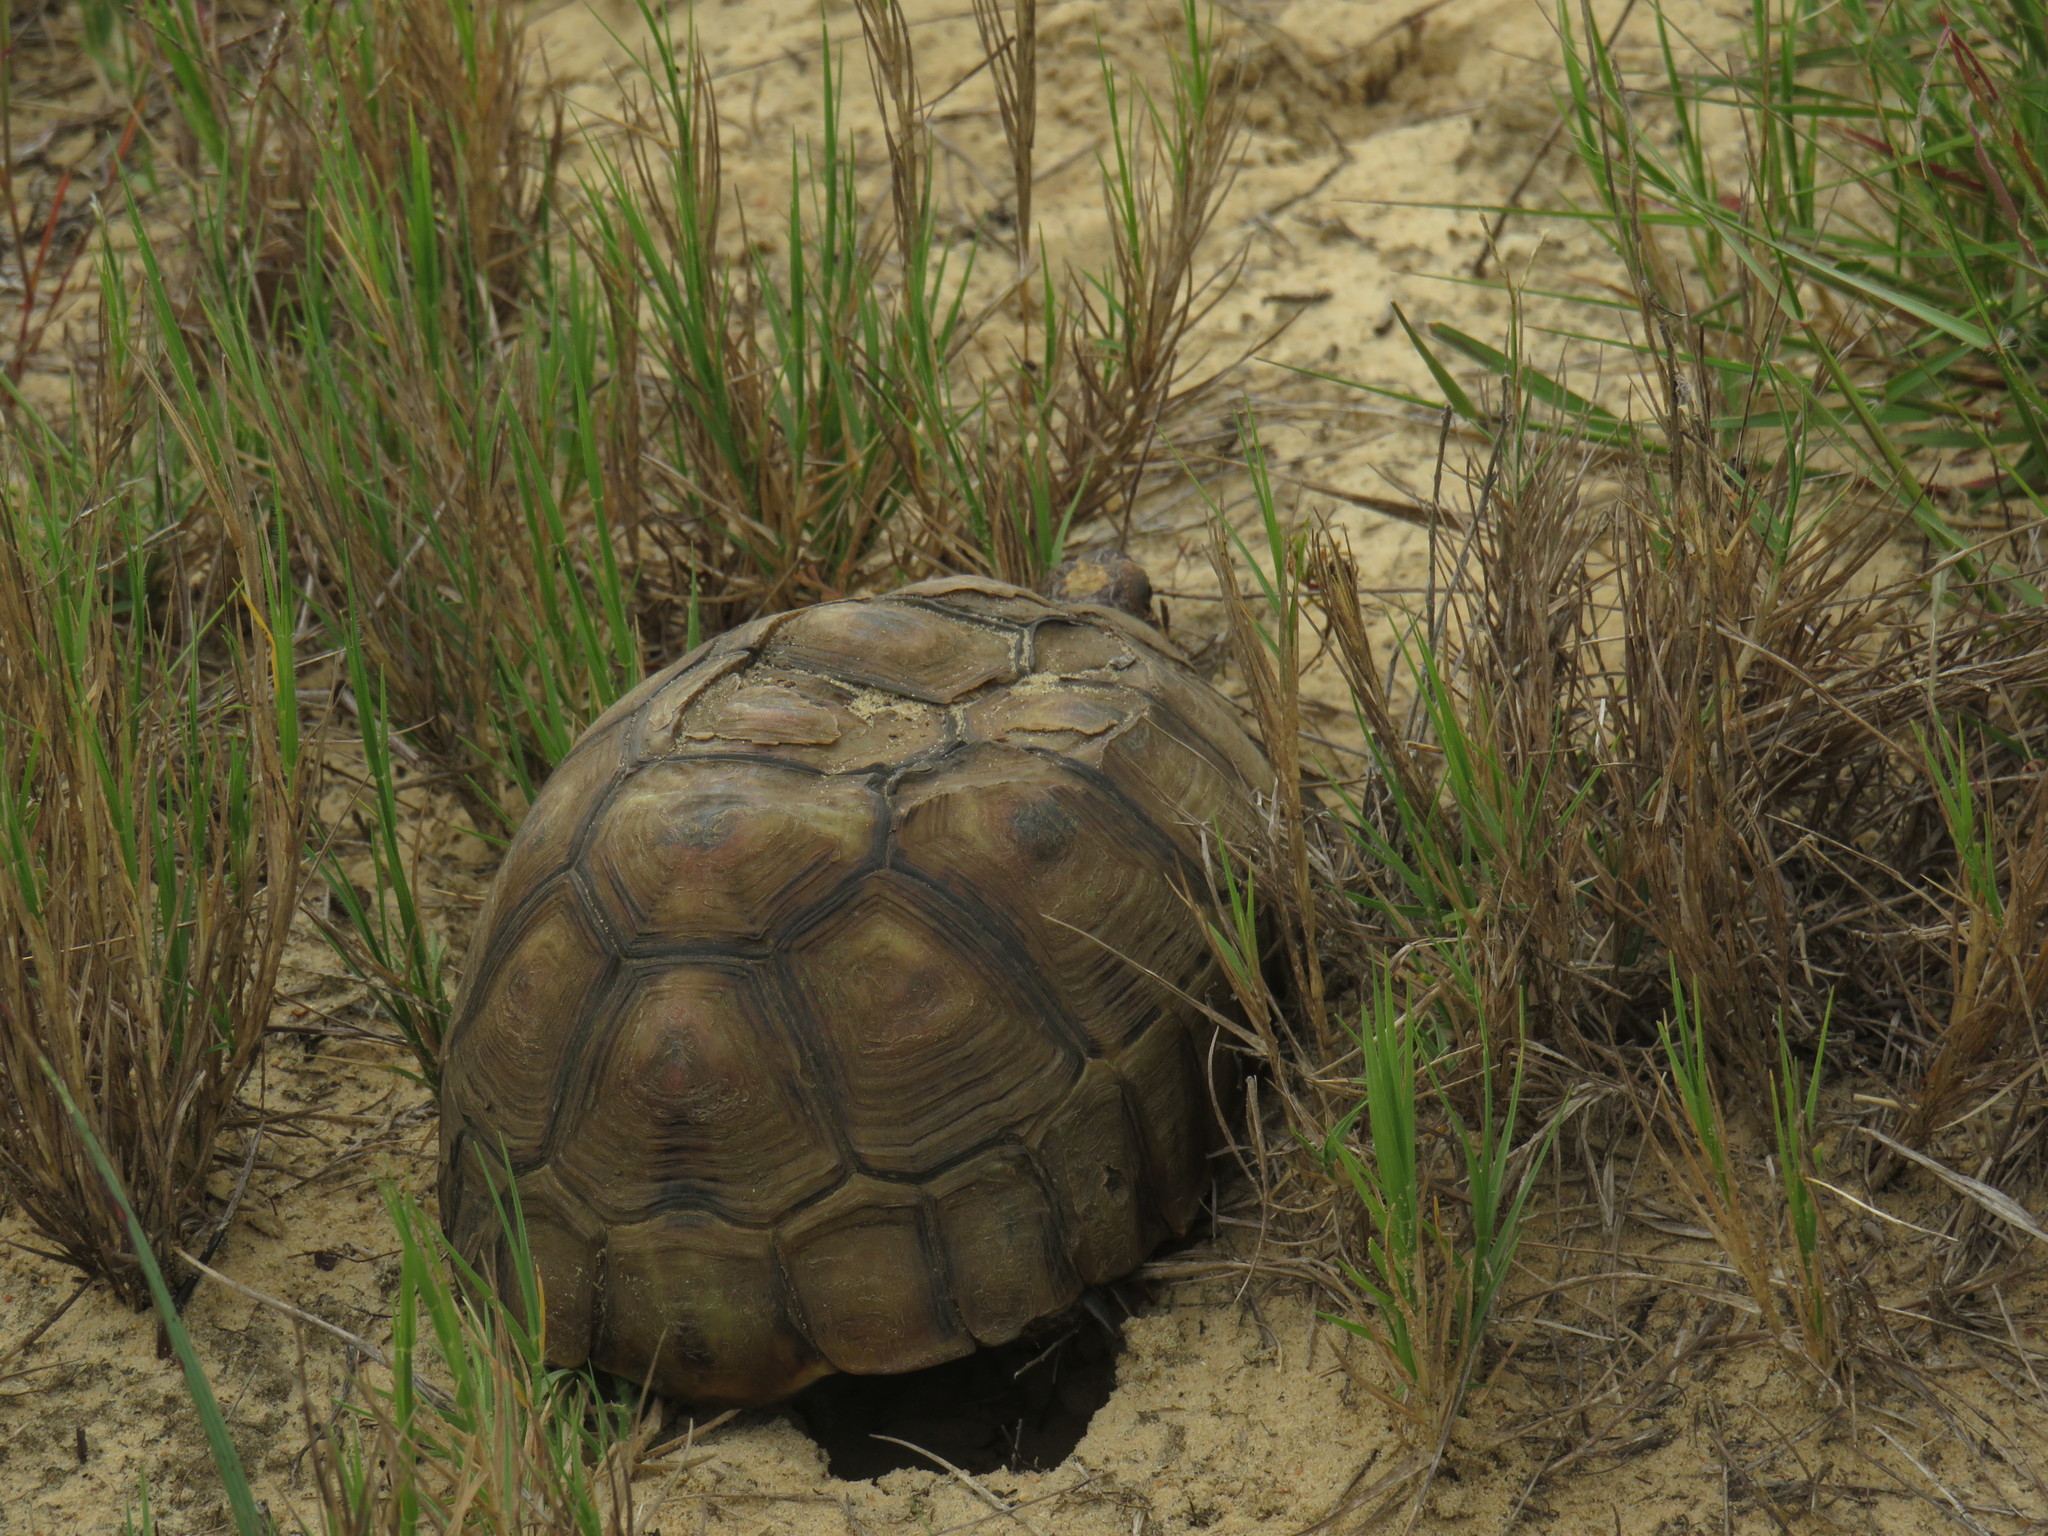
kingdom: Animalia
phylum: Chordata
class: Testudines
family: Testudinidae
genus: Chersina
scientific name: Chersina angulata
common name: South african bowsprit tortoise
